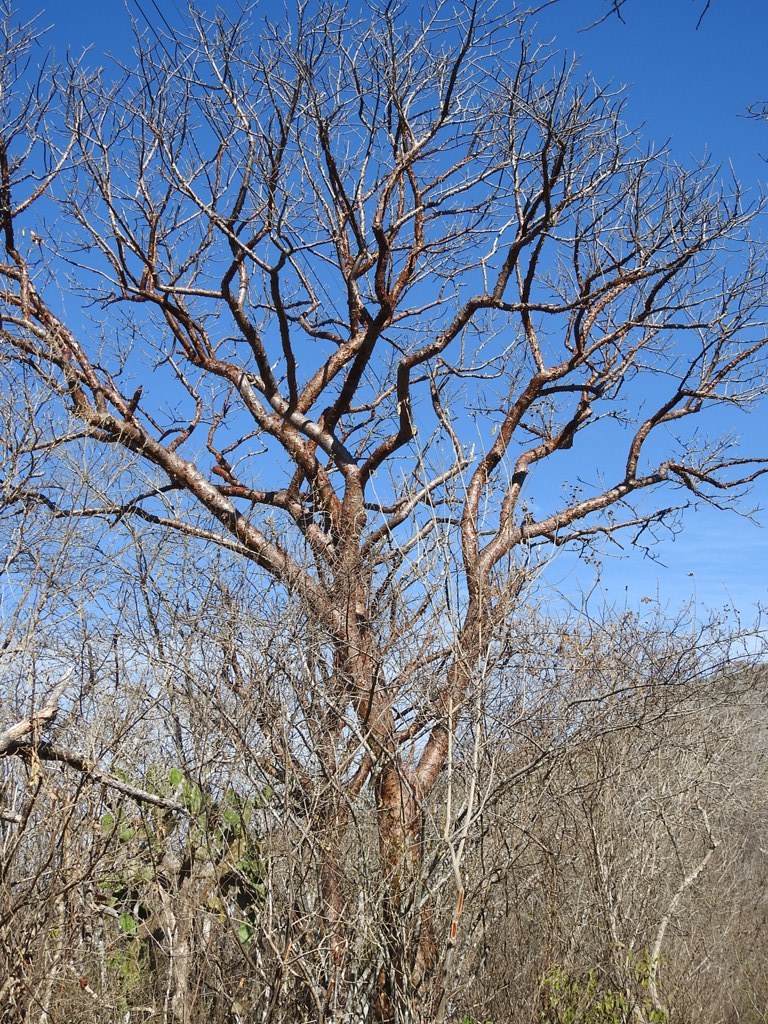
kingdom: Plantae
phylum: Tracheophyta
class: Magnoliopsida
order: Sapindales
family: Burseraceae
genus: Bursera
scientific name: Bursera simaruba
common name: Turpentine tree
